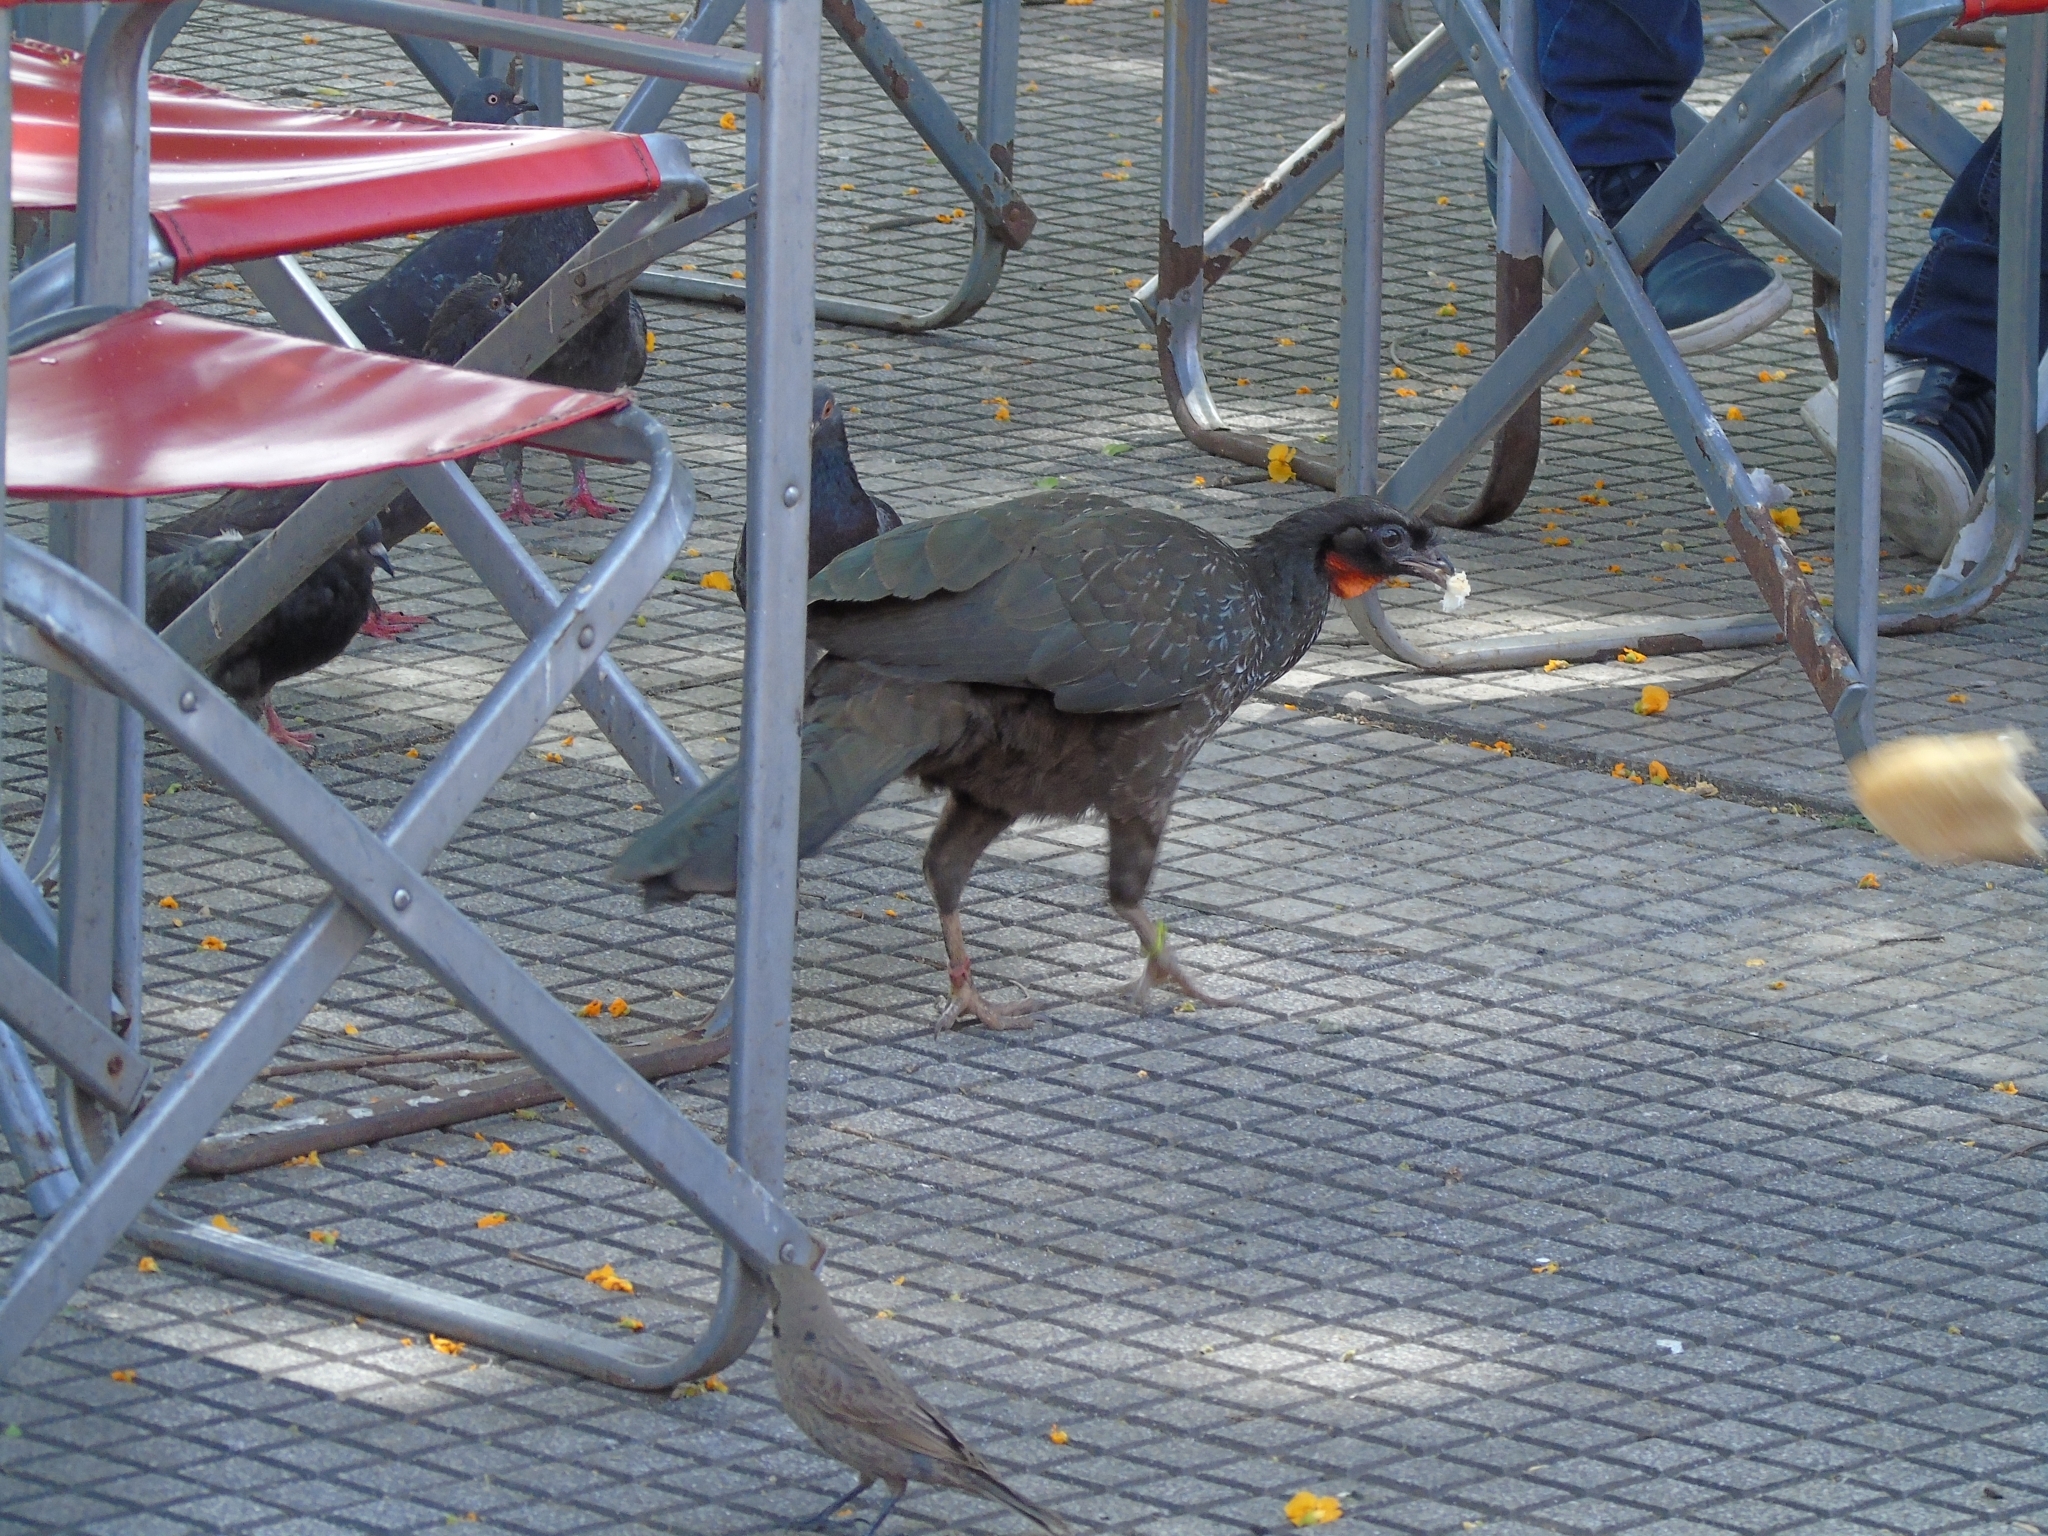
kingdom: Animalia
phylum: Chordata
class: Aves
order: Galliformes
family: Cracidae
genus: Penelope
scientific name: Penelope obscura
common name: Dusky-legged guan
